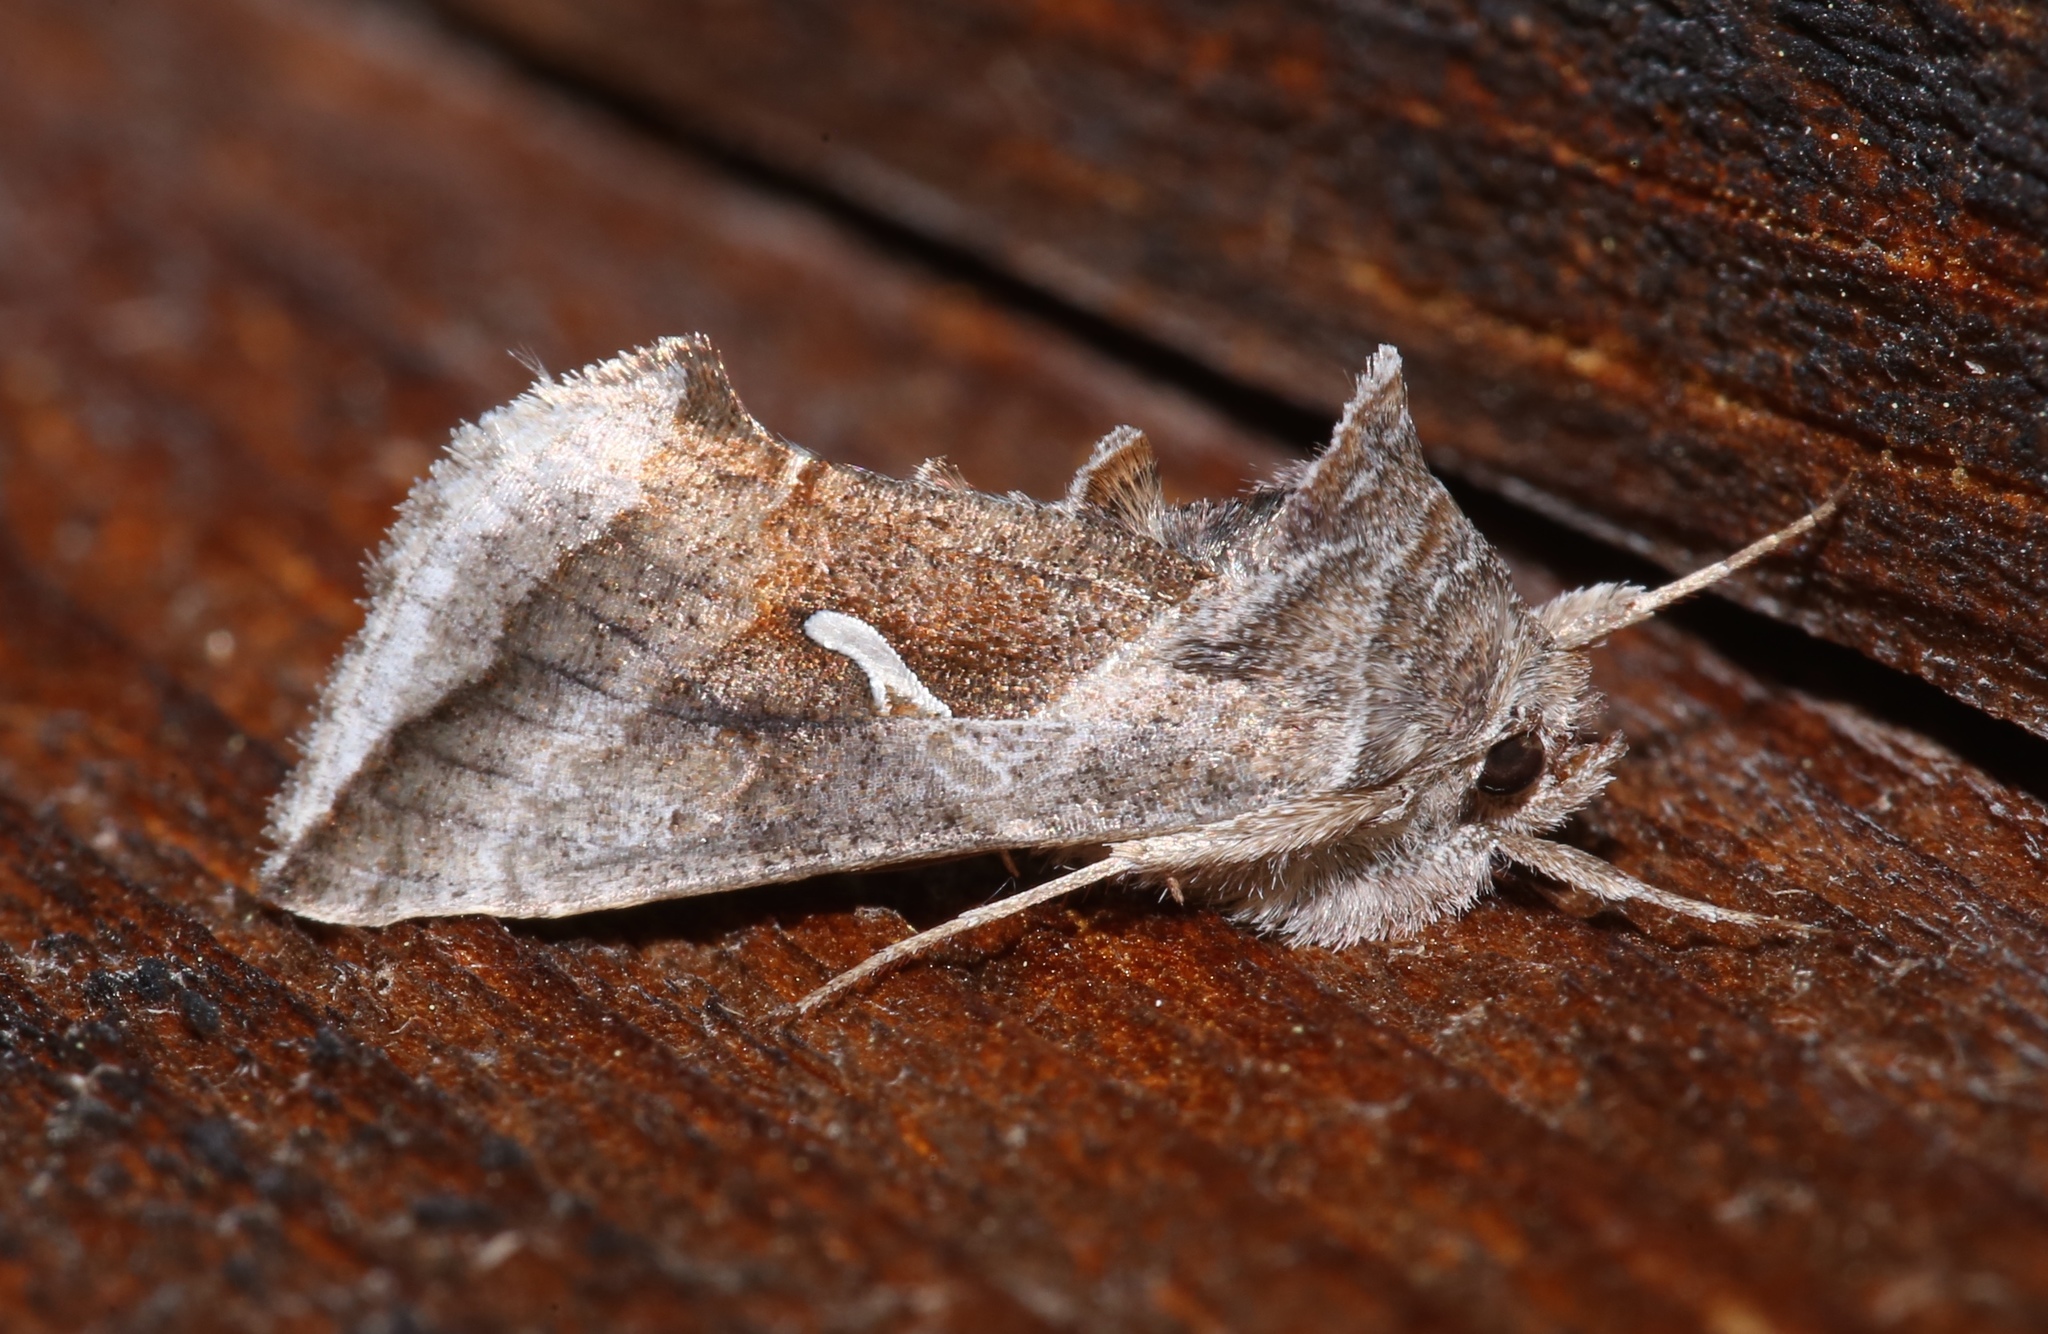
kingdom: Animalia
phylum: Arthropoda
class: Insecta
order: Lepidoptera
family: Noctuidae
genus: Anagrapha
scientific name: Anagrapha falcifera
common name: Celery looper
